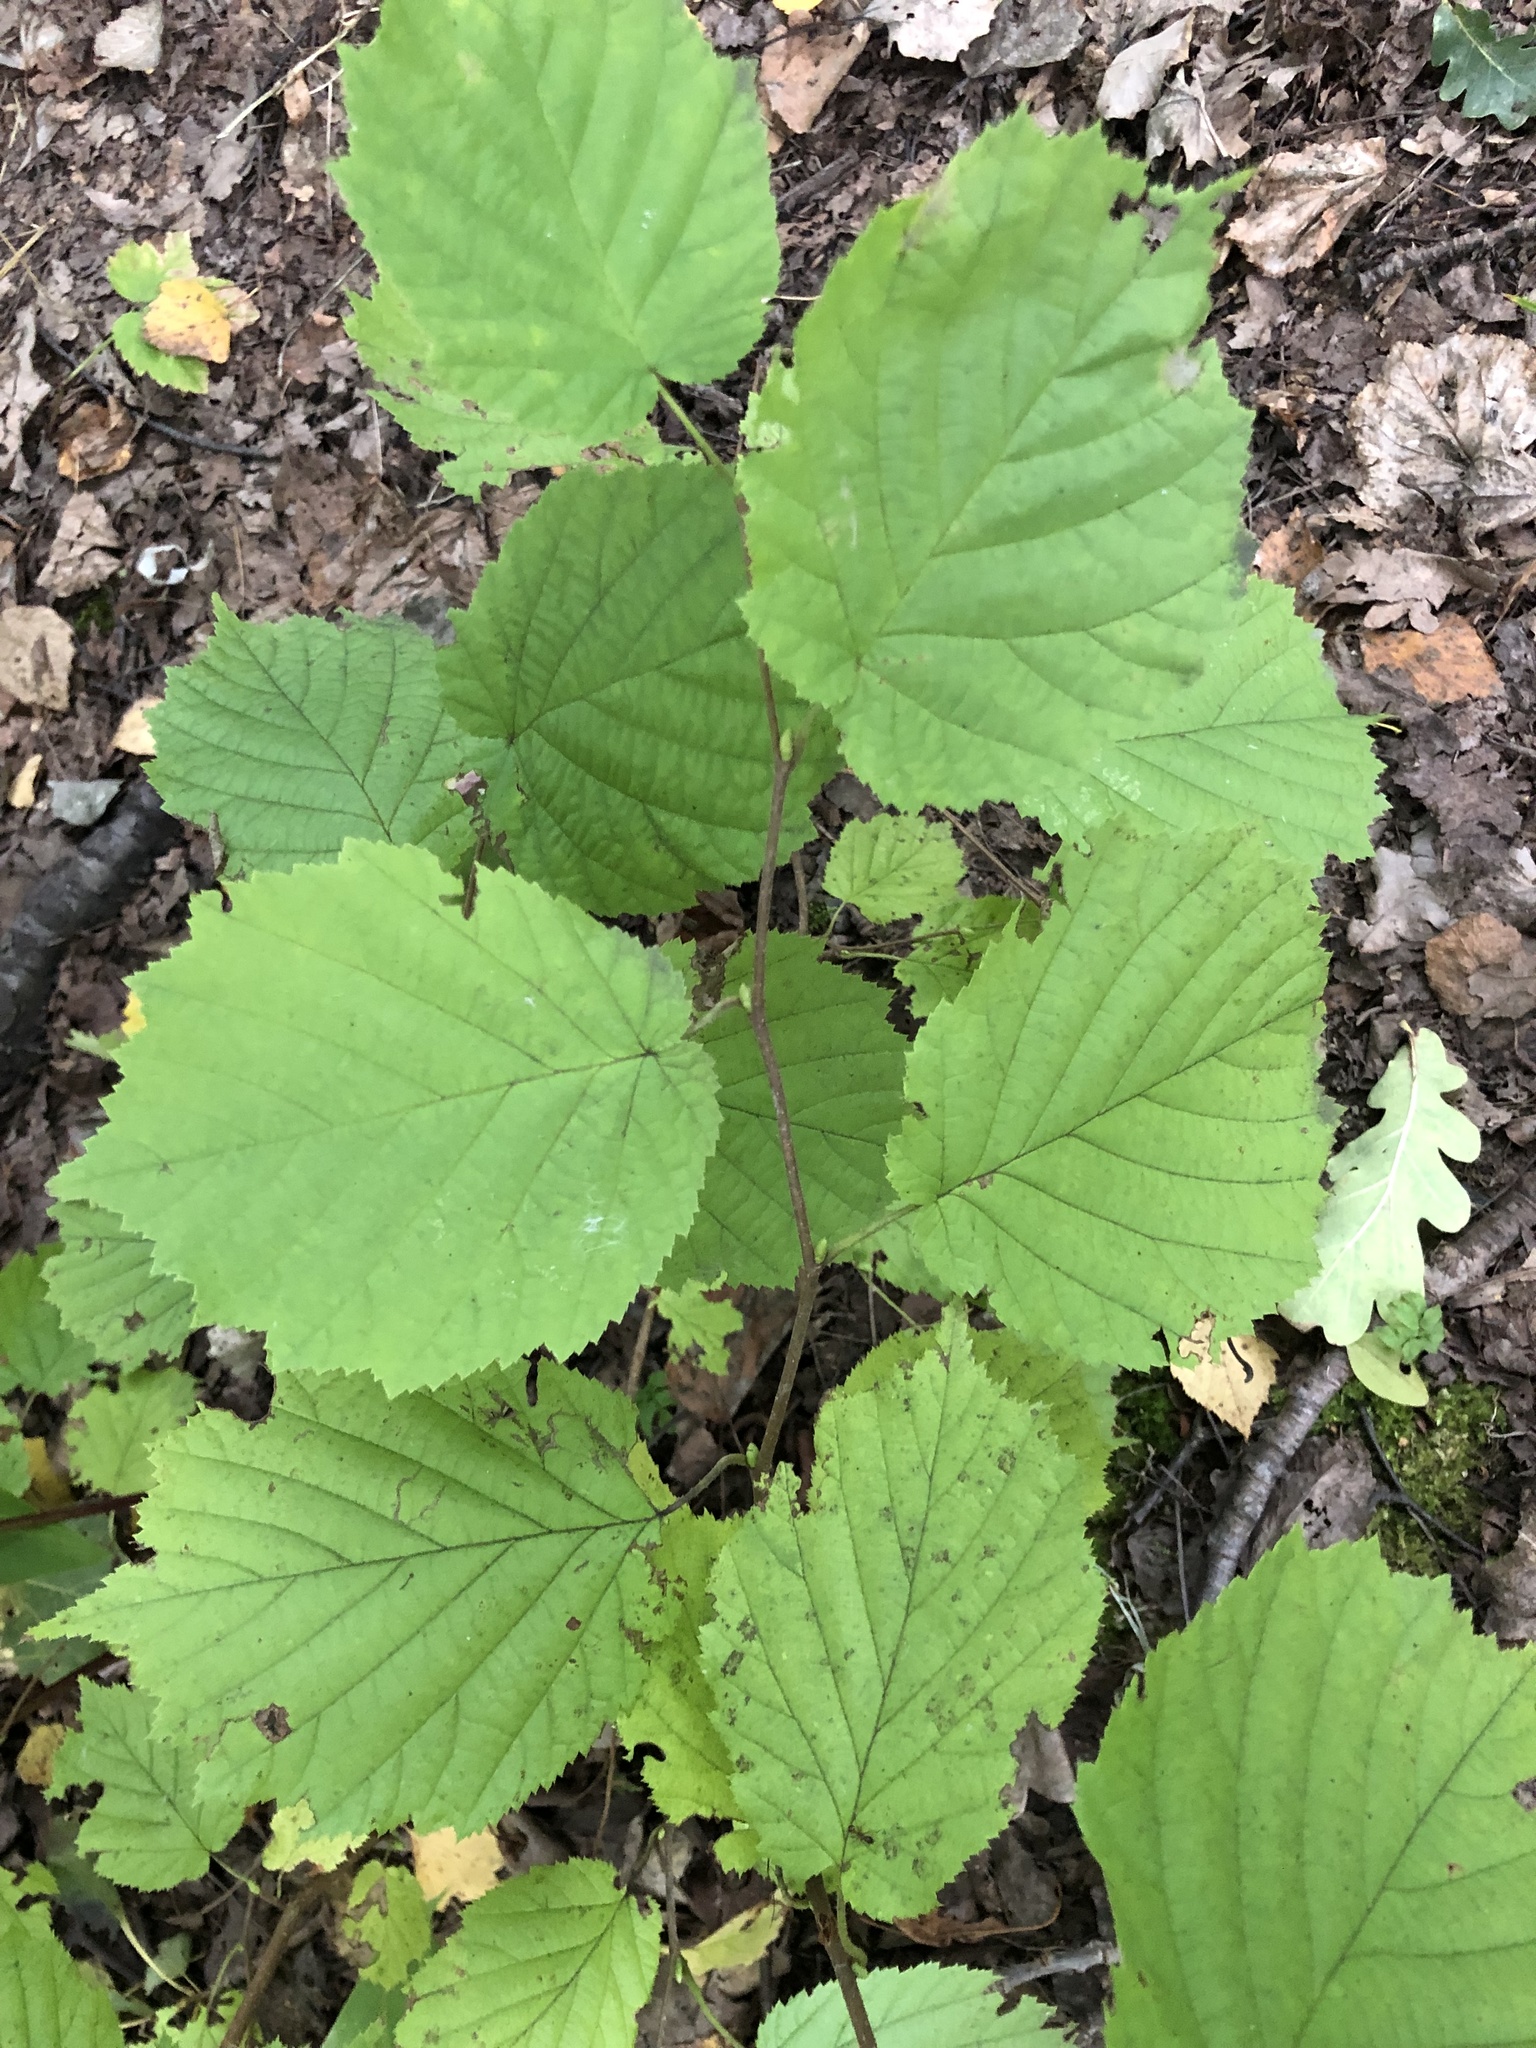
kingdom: Plantae
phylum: Tracheophyta
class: Magnoliopsida
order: Fagales
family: Betulaceae
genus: Corylus
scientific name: Corylus avellana
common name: European hazel
